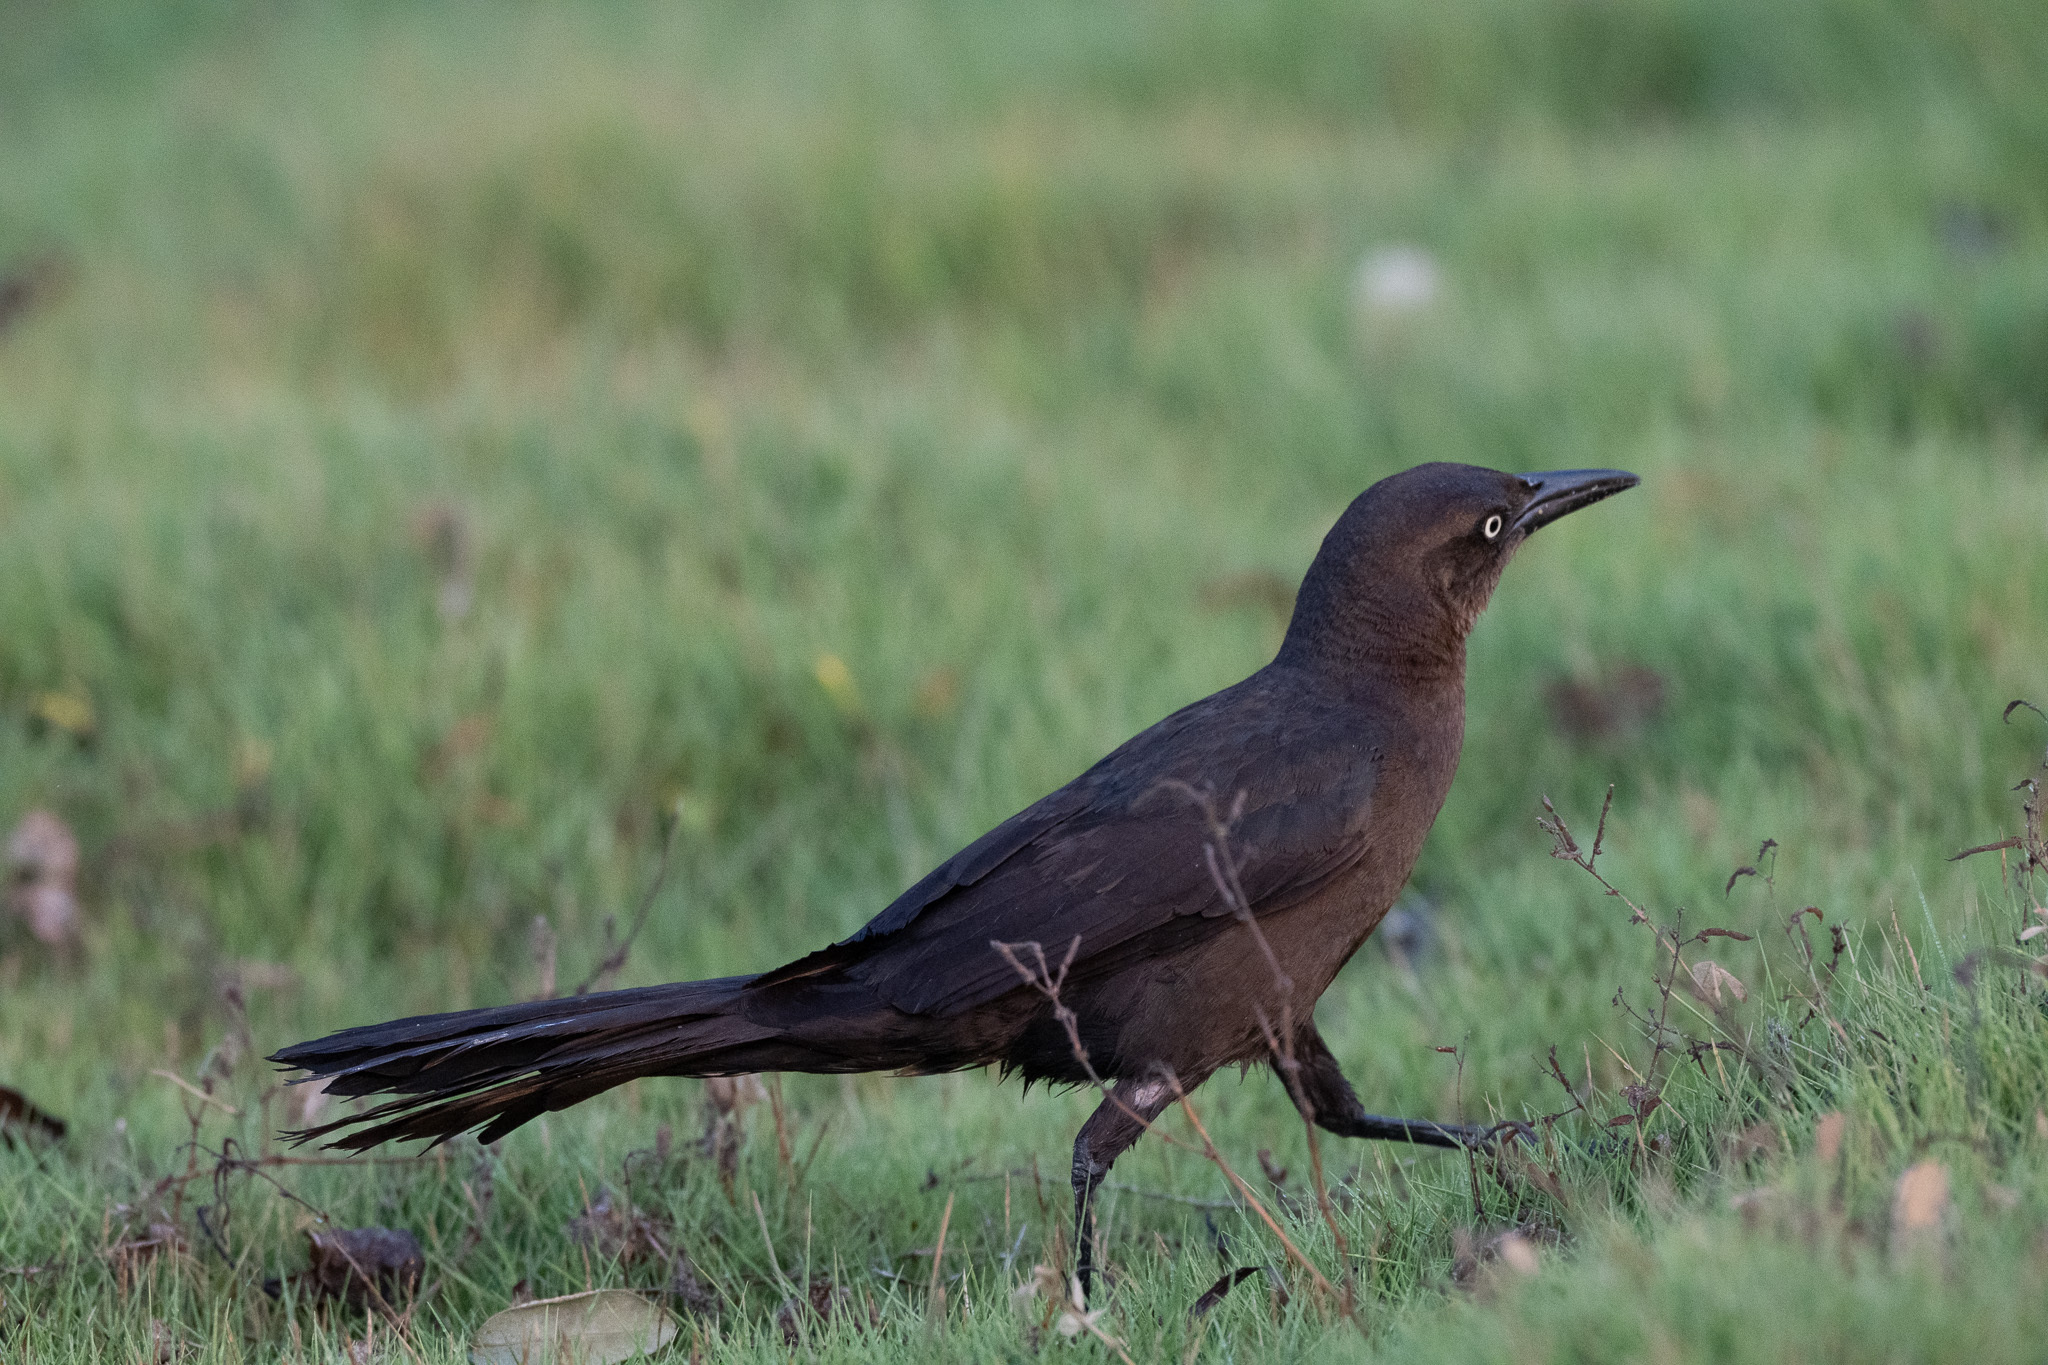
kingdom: Animalia
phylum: Chordata
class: Aves
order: Passeriformes
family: Icteridae
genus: Quiscalus
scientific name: Quiscalus mexicanus
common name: Great-tailed grackle
